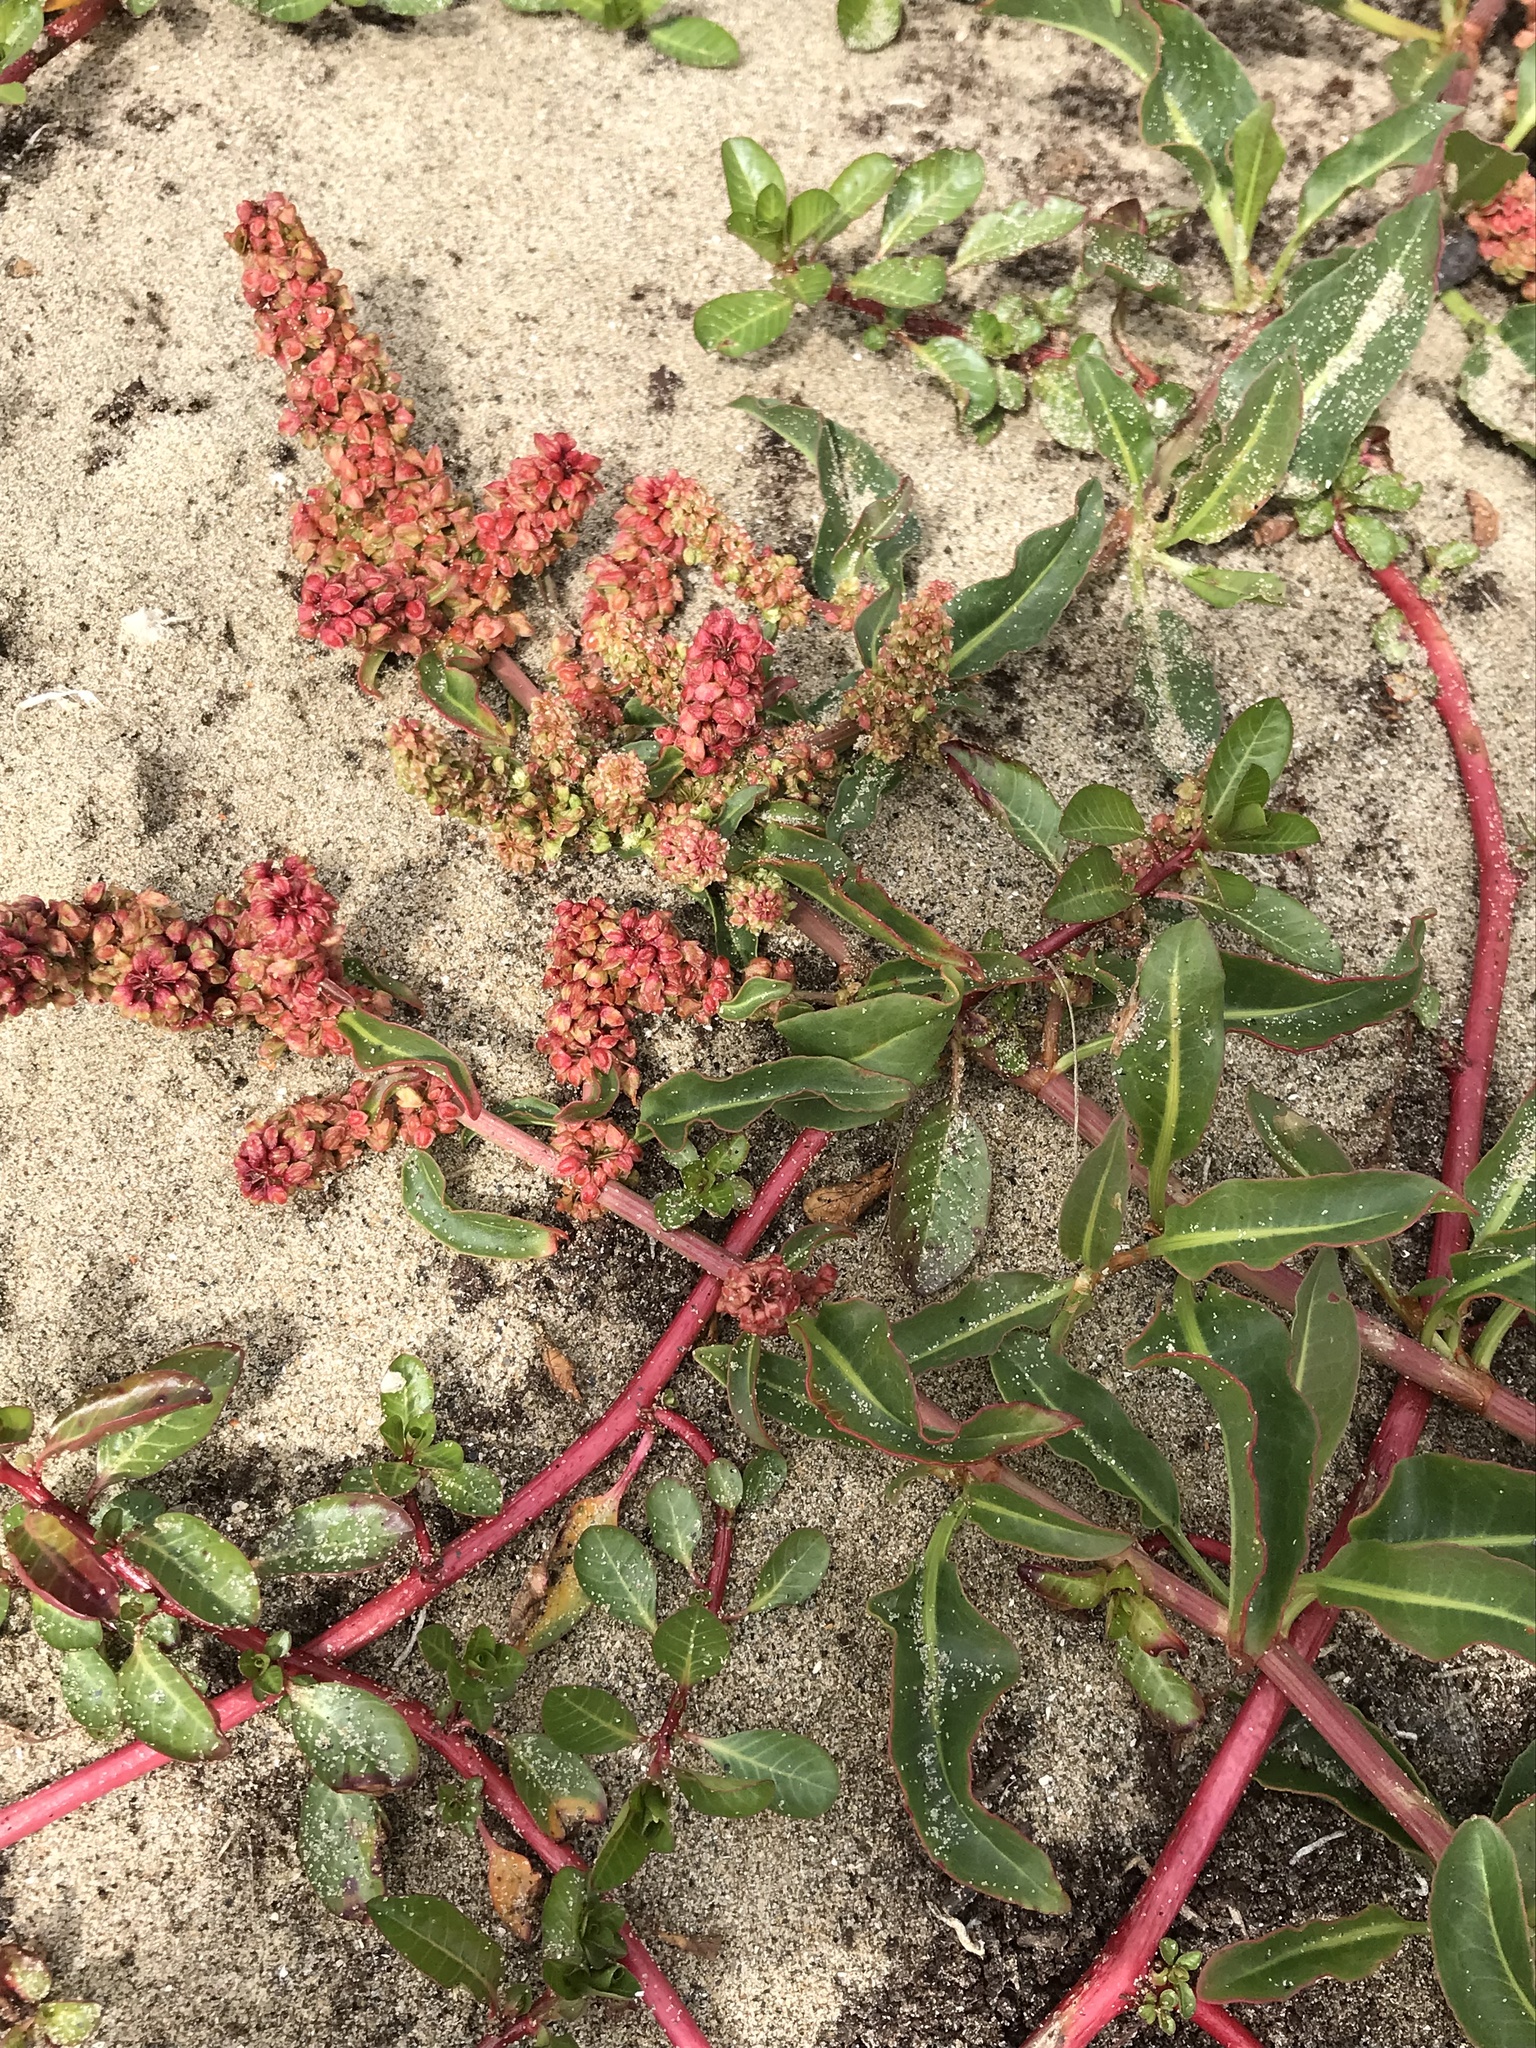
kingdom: Plantae
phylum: Tracheophyta
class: Magnoliopsida
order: Caryophyllales
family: Polygonaceae
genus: Rumex
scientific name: Rumex salicifolius
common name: Willow-leaved dock
